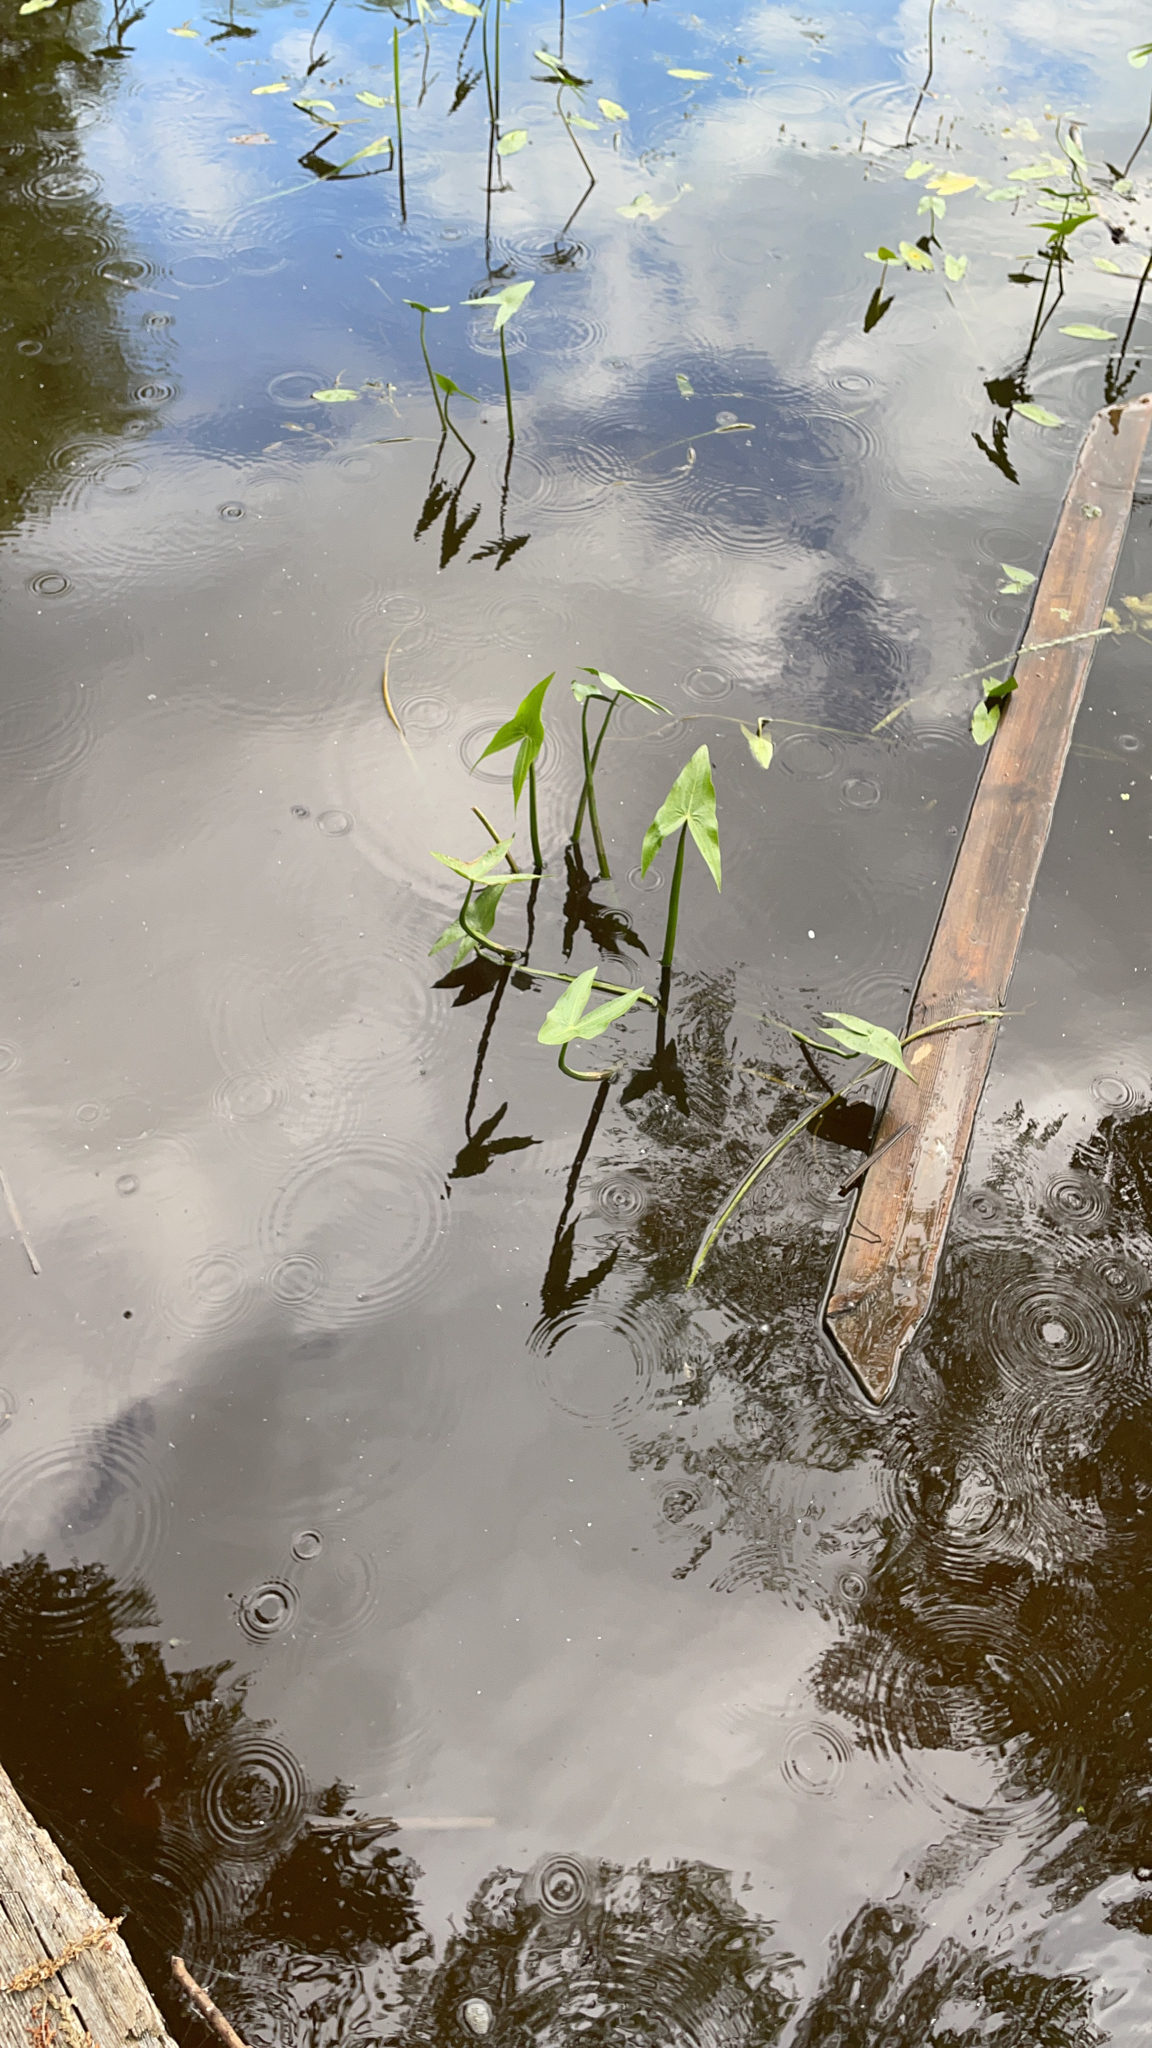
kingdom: Plantae
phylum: Tracheophyta
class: Liliopsida
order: Alismatales
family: Alismataceae
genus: Sagittaria
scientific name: Sagittaria sagittifolia
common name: Arrowhead
